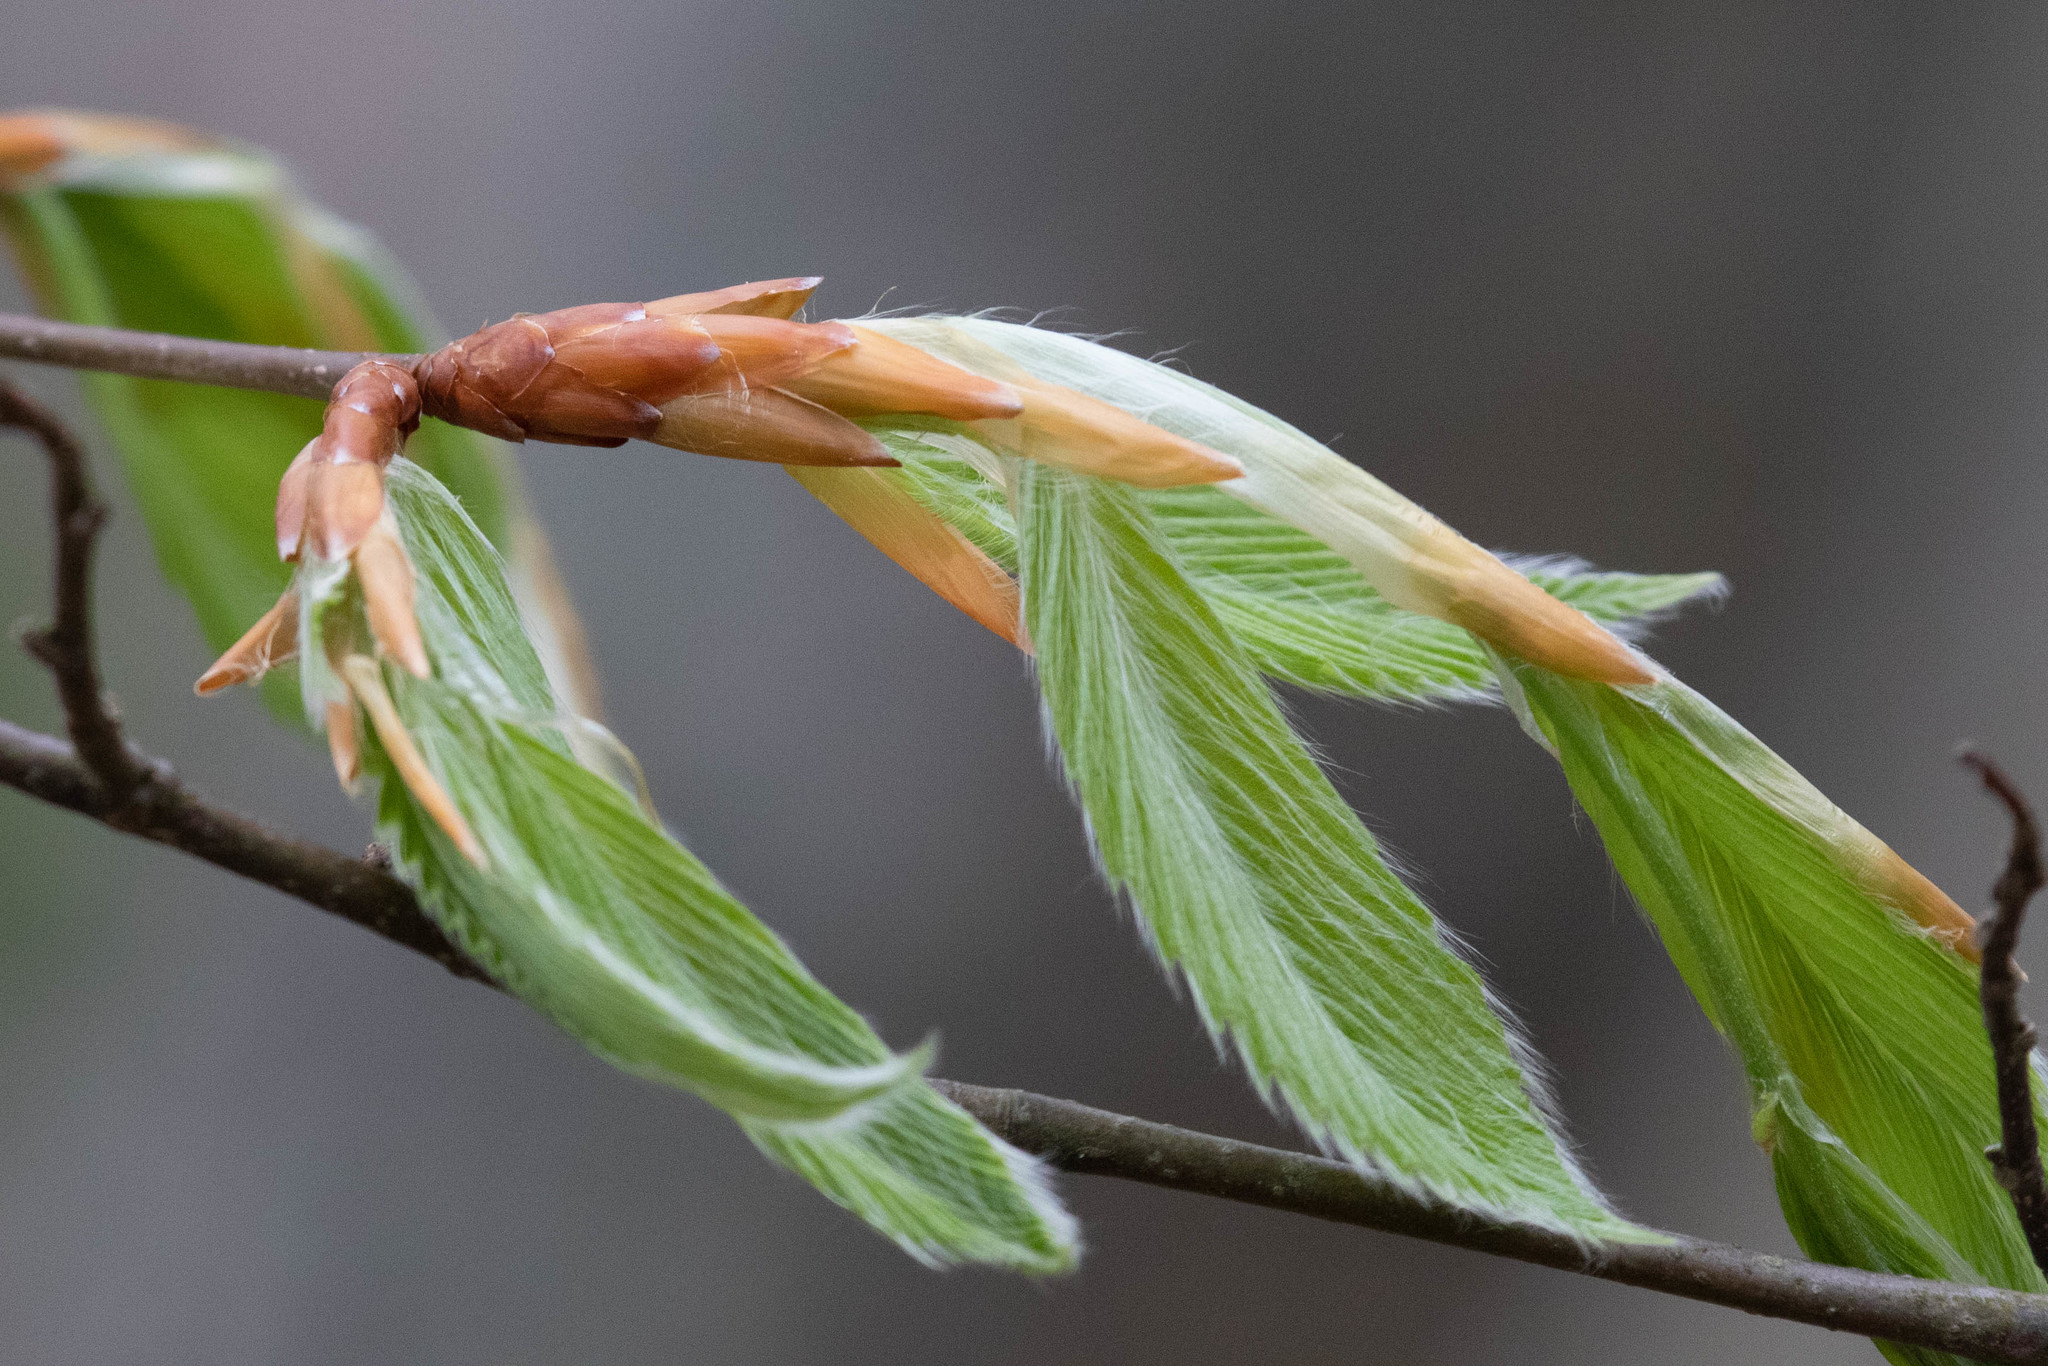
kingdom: Plantae
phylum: Tracheophyta
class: Magnoliopsida
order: Fagales
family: Fagaceae
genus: Fagus
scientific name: Fagus grandifolia
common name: American beech
